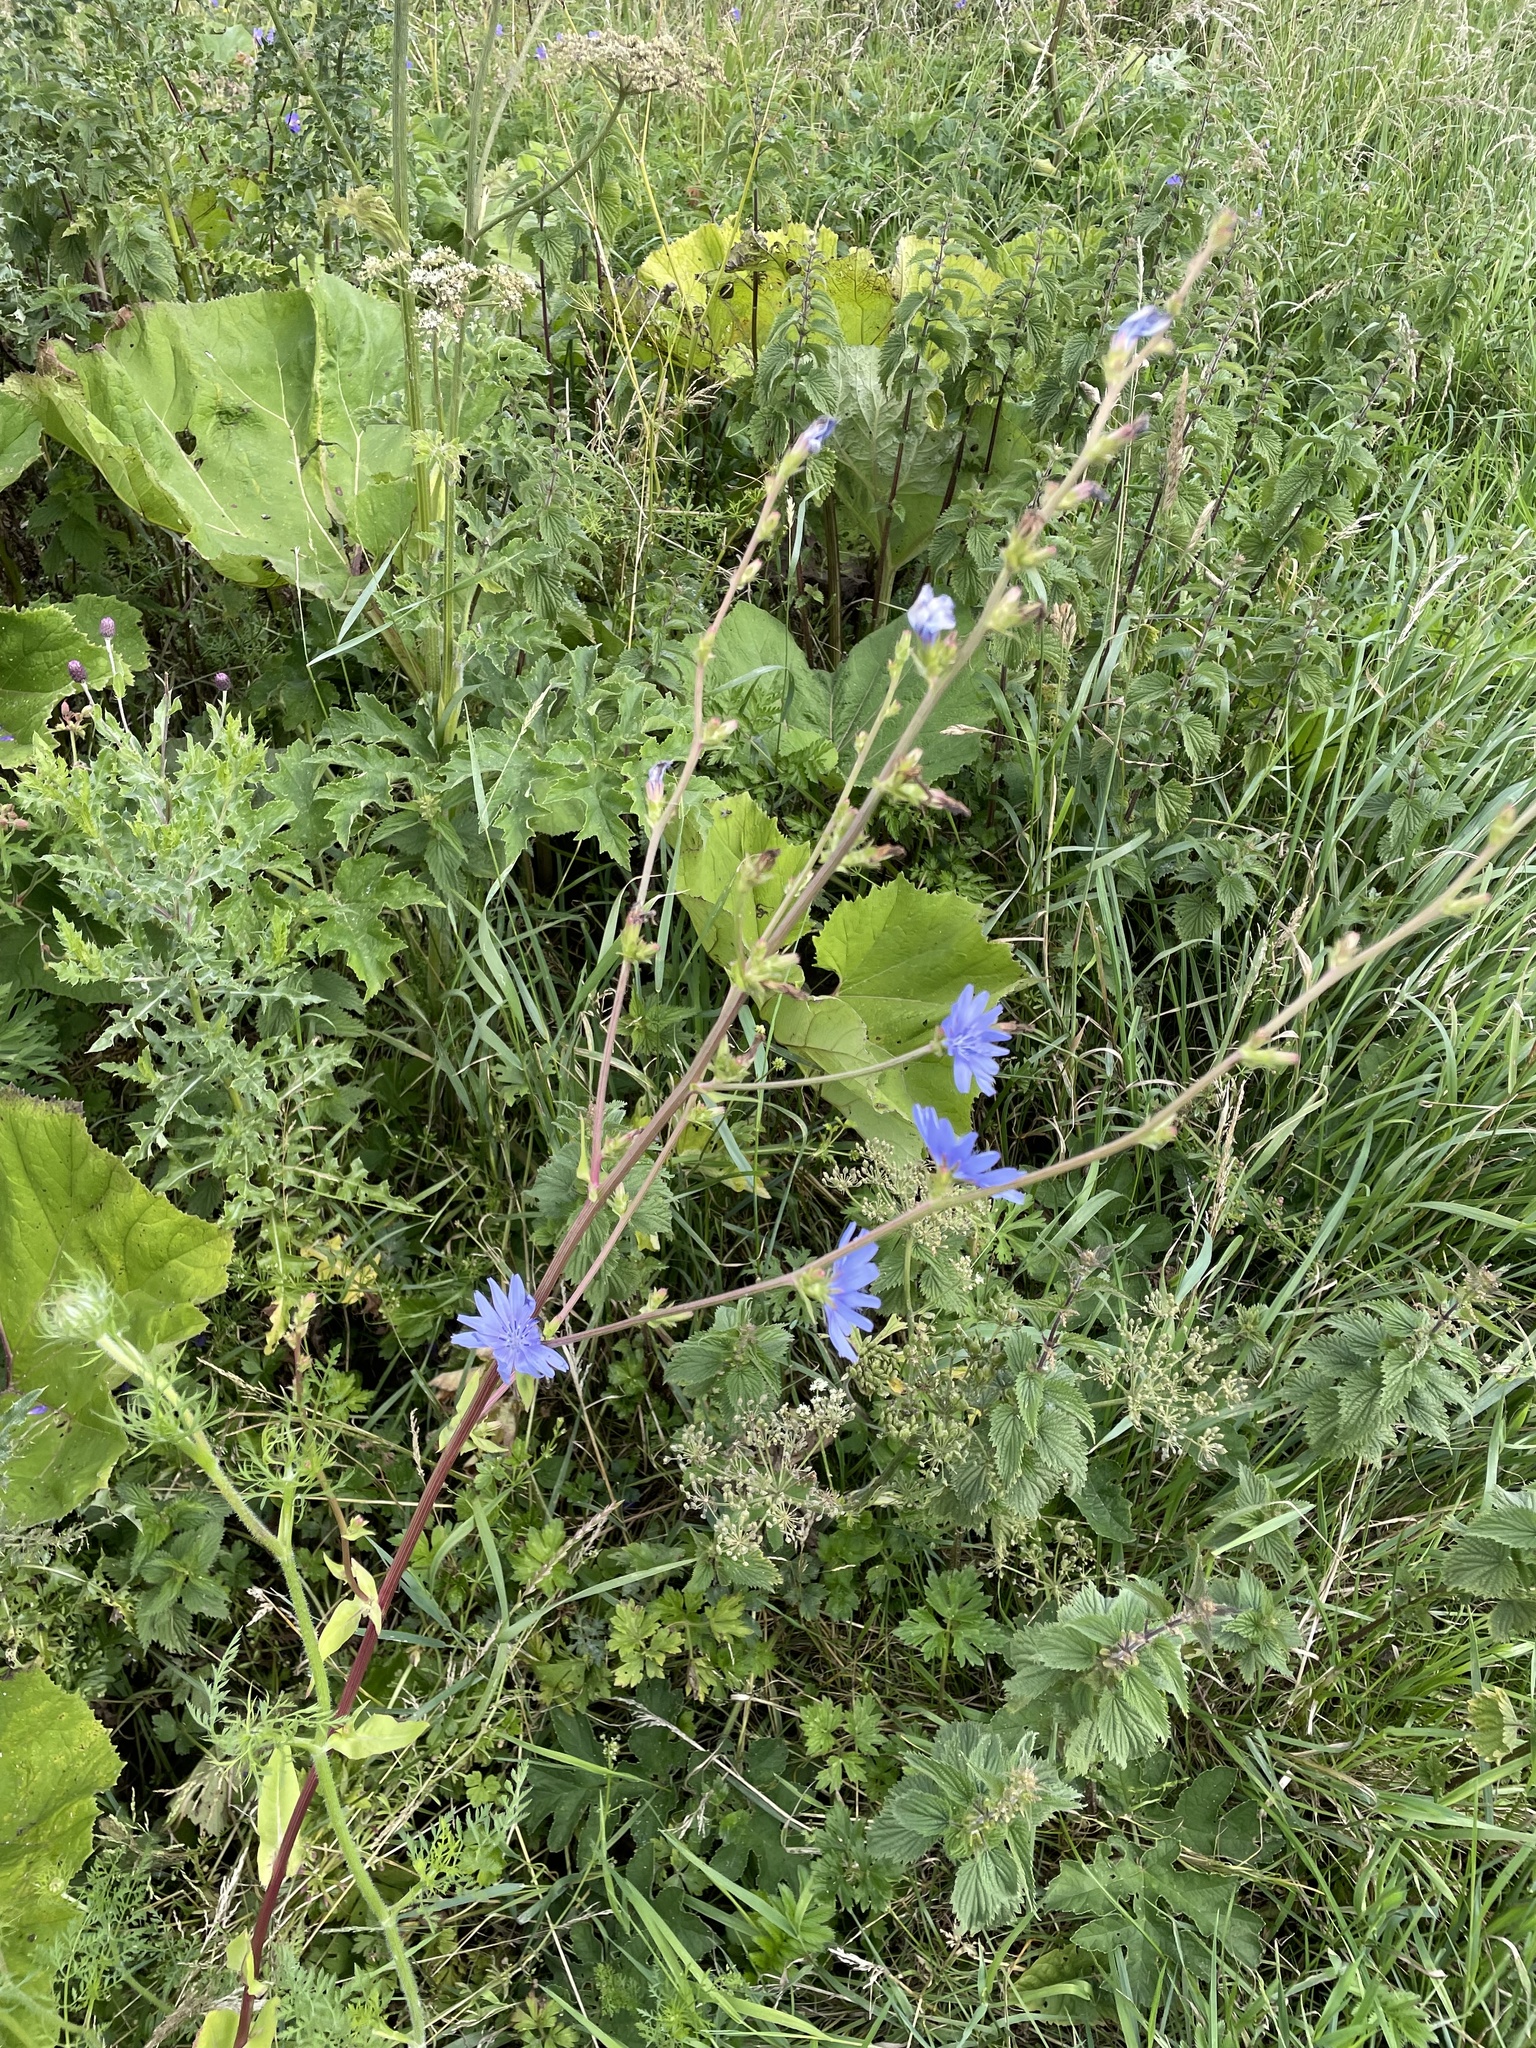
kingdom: Plantae
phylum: Tracheophyta
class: Magnoliopsida
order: Asterales
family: Asteraceae
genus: Cichorium
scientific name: Cichorium intybus
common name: Chicory
